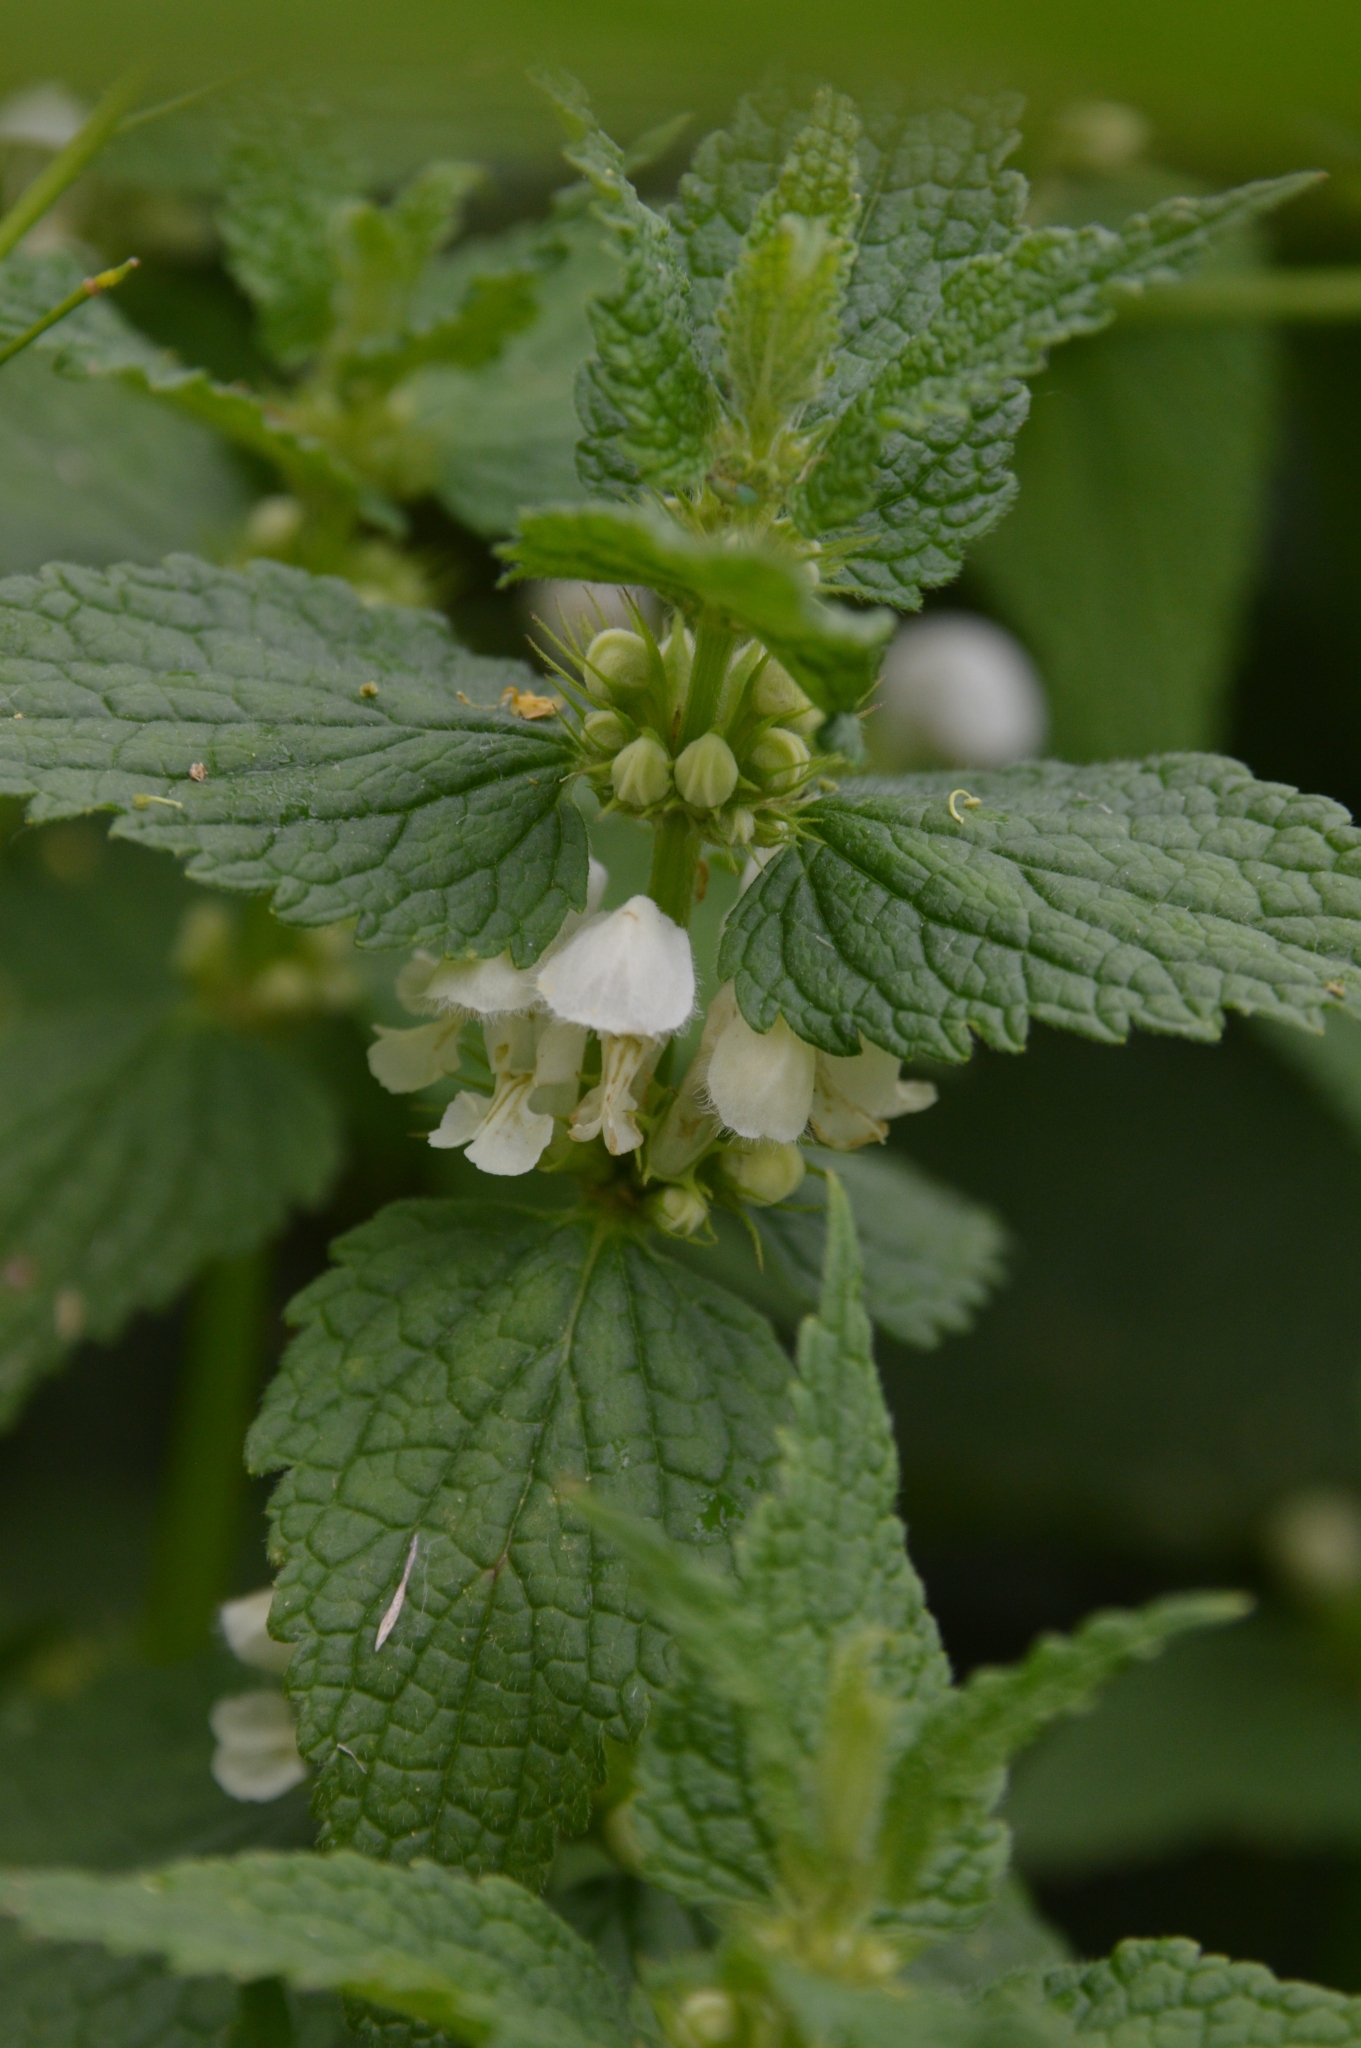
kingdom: Plantae
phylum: Tracheophyta
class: Magnoliopsida
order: Lamiales
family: Lamiaceae
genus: Lamium
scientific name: Lamium album
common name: White dead-nettle
